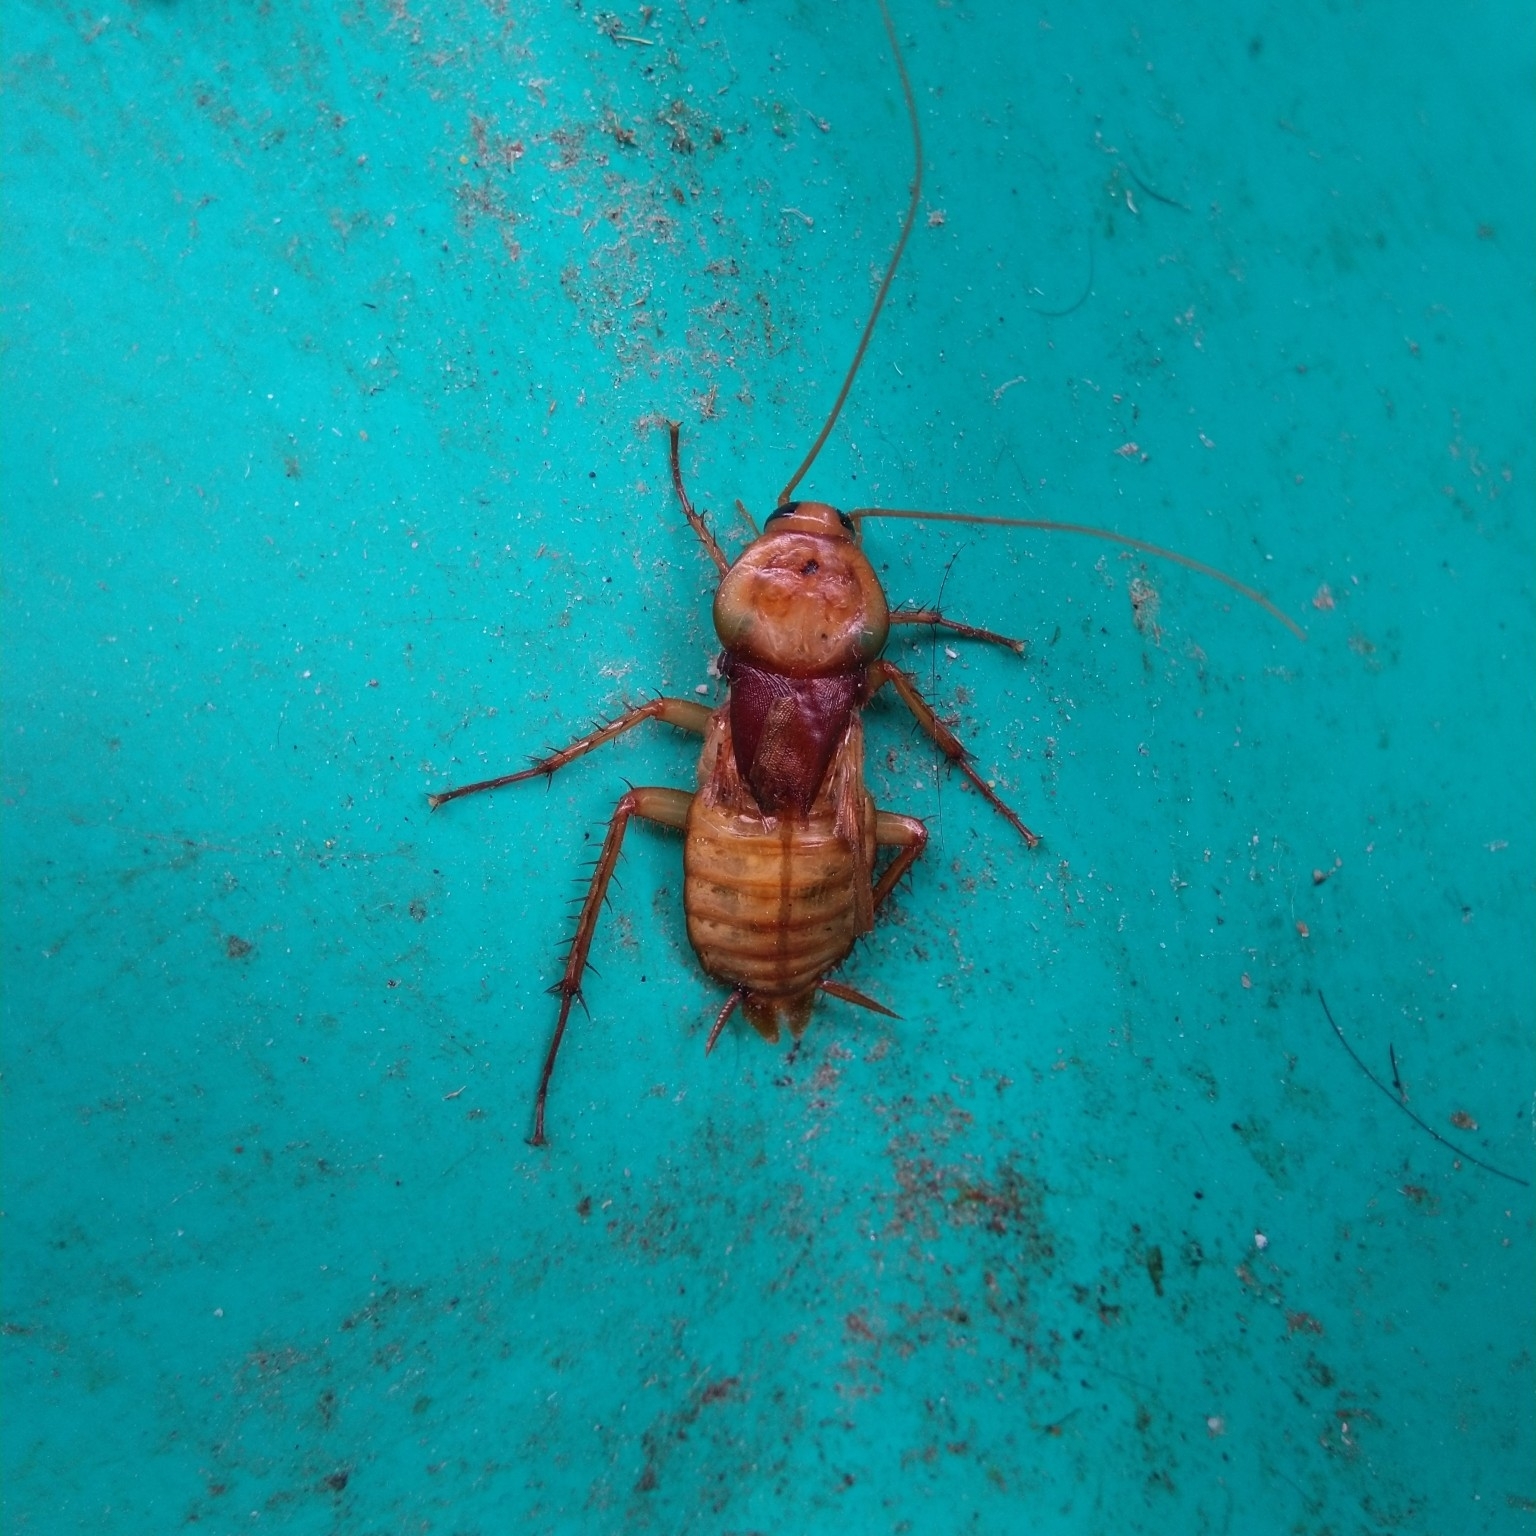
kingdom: Animalia
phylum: Arthropoda
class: Insecta
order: Blattodea
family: Blattidae
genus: Periplaneta
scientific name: Periplaneta americana
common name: American cockroach
